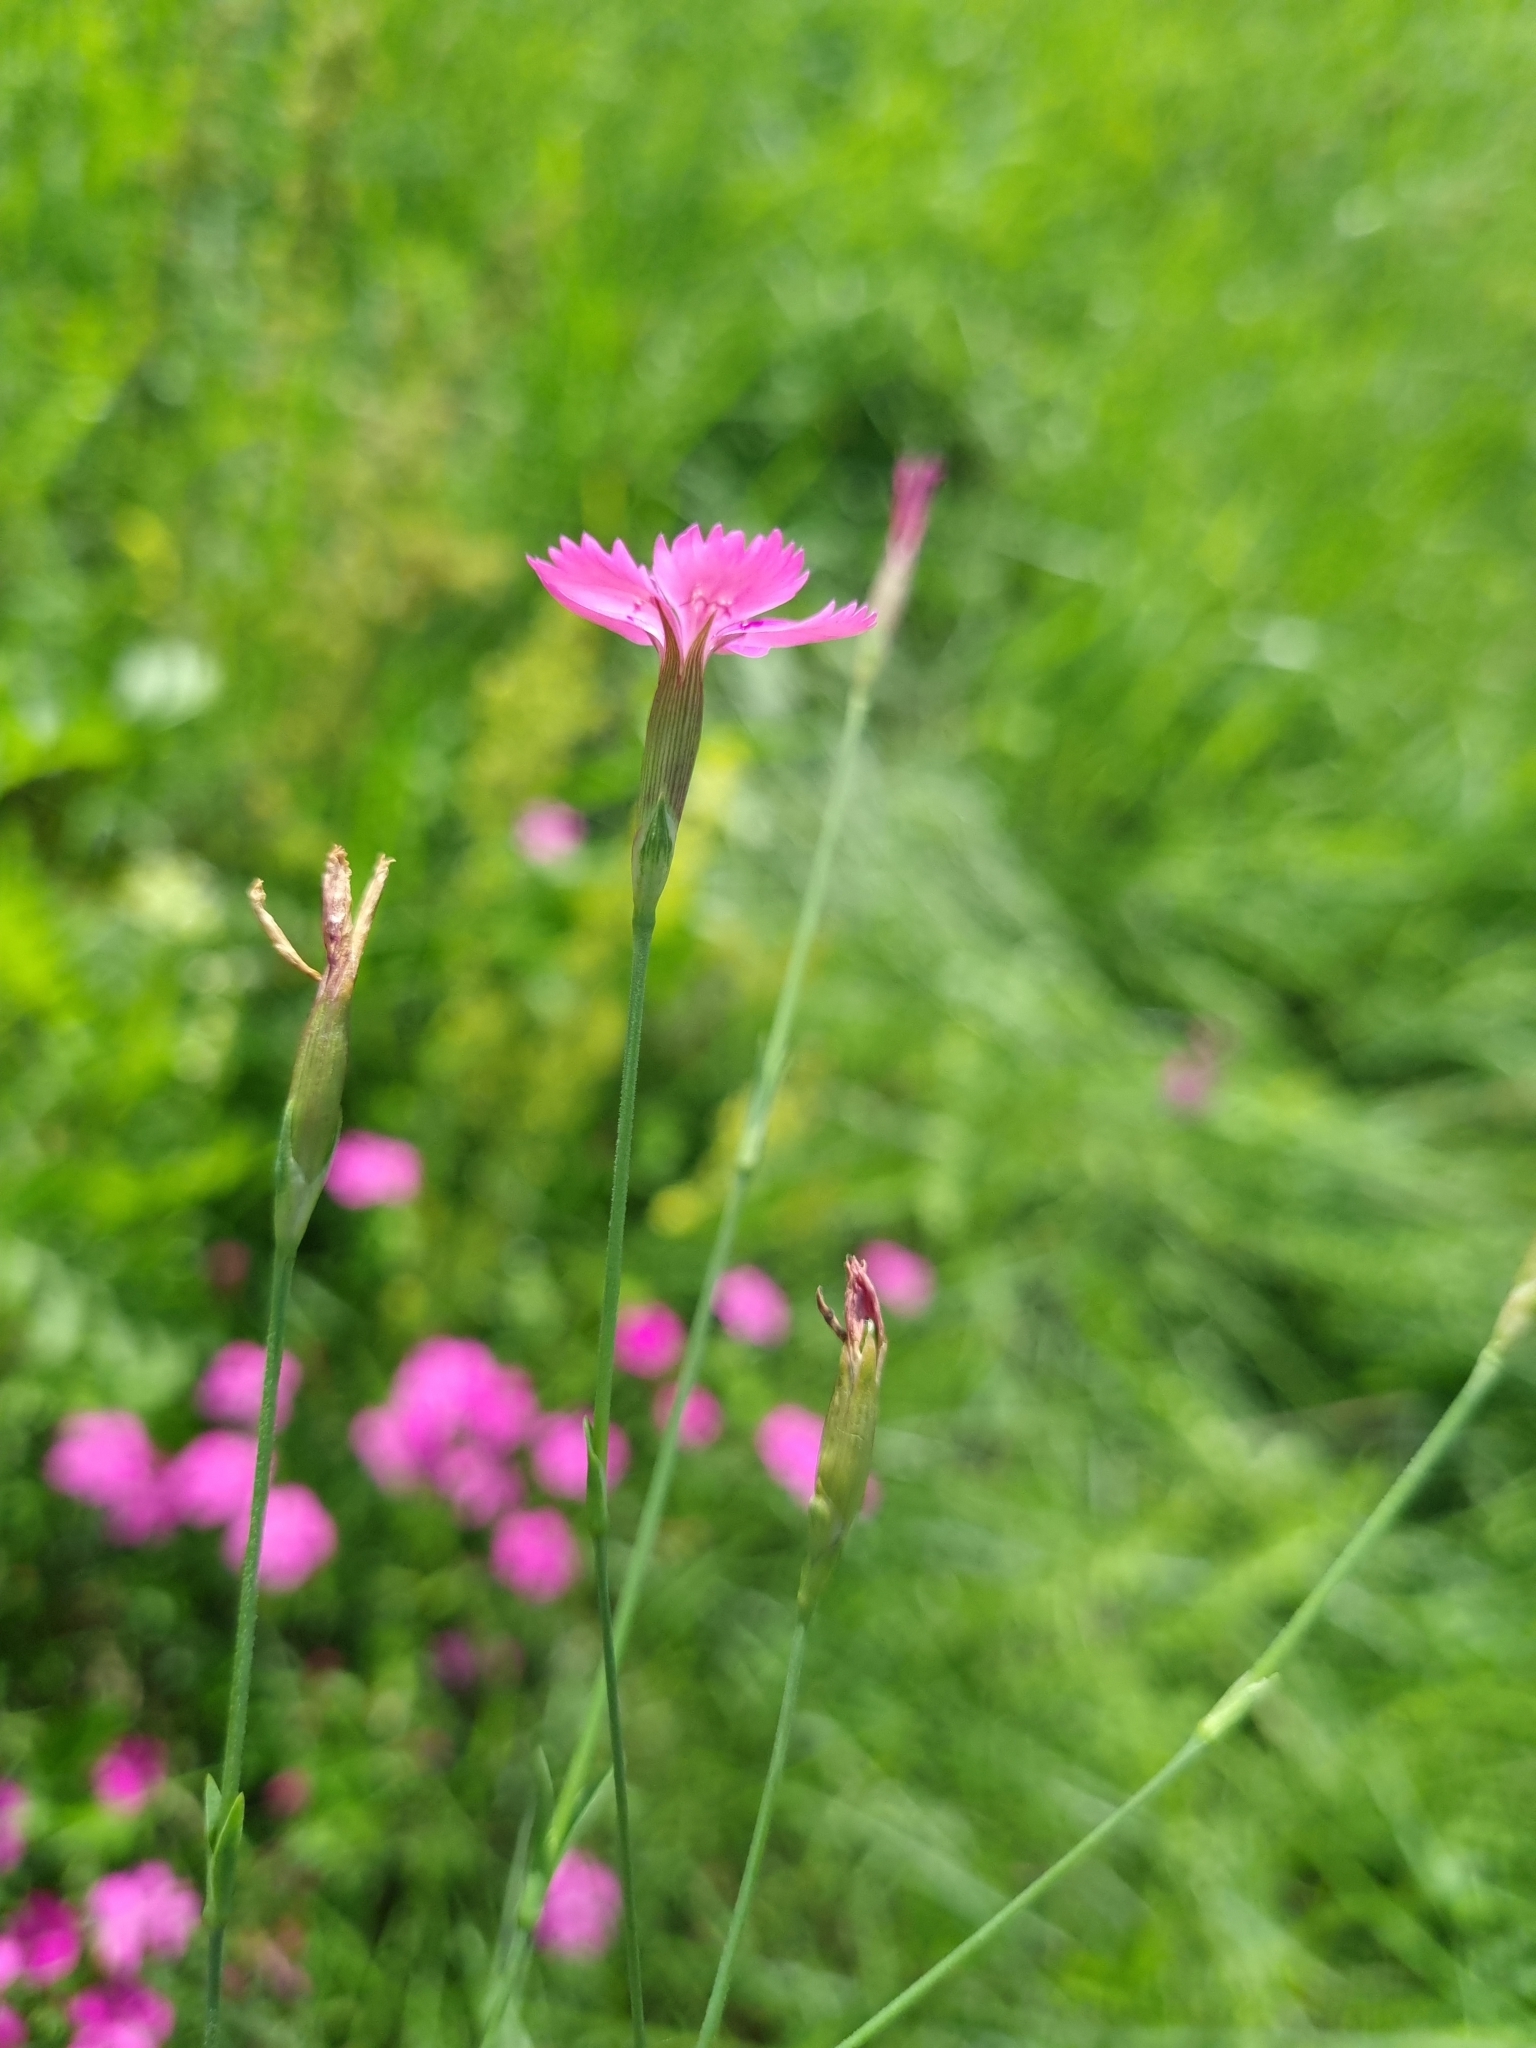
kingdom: Plantae
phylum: Tracheophyta
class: Magnoliopsida
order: Caryophyllales
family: Caryophyllaceae
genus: Dianthus
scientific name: Dianthus deltoides
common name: Maiden pink
